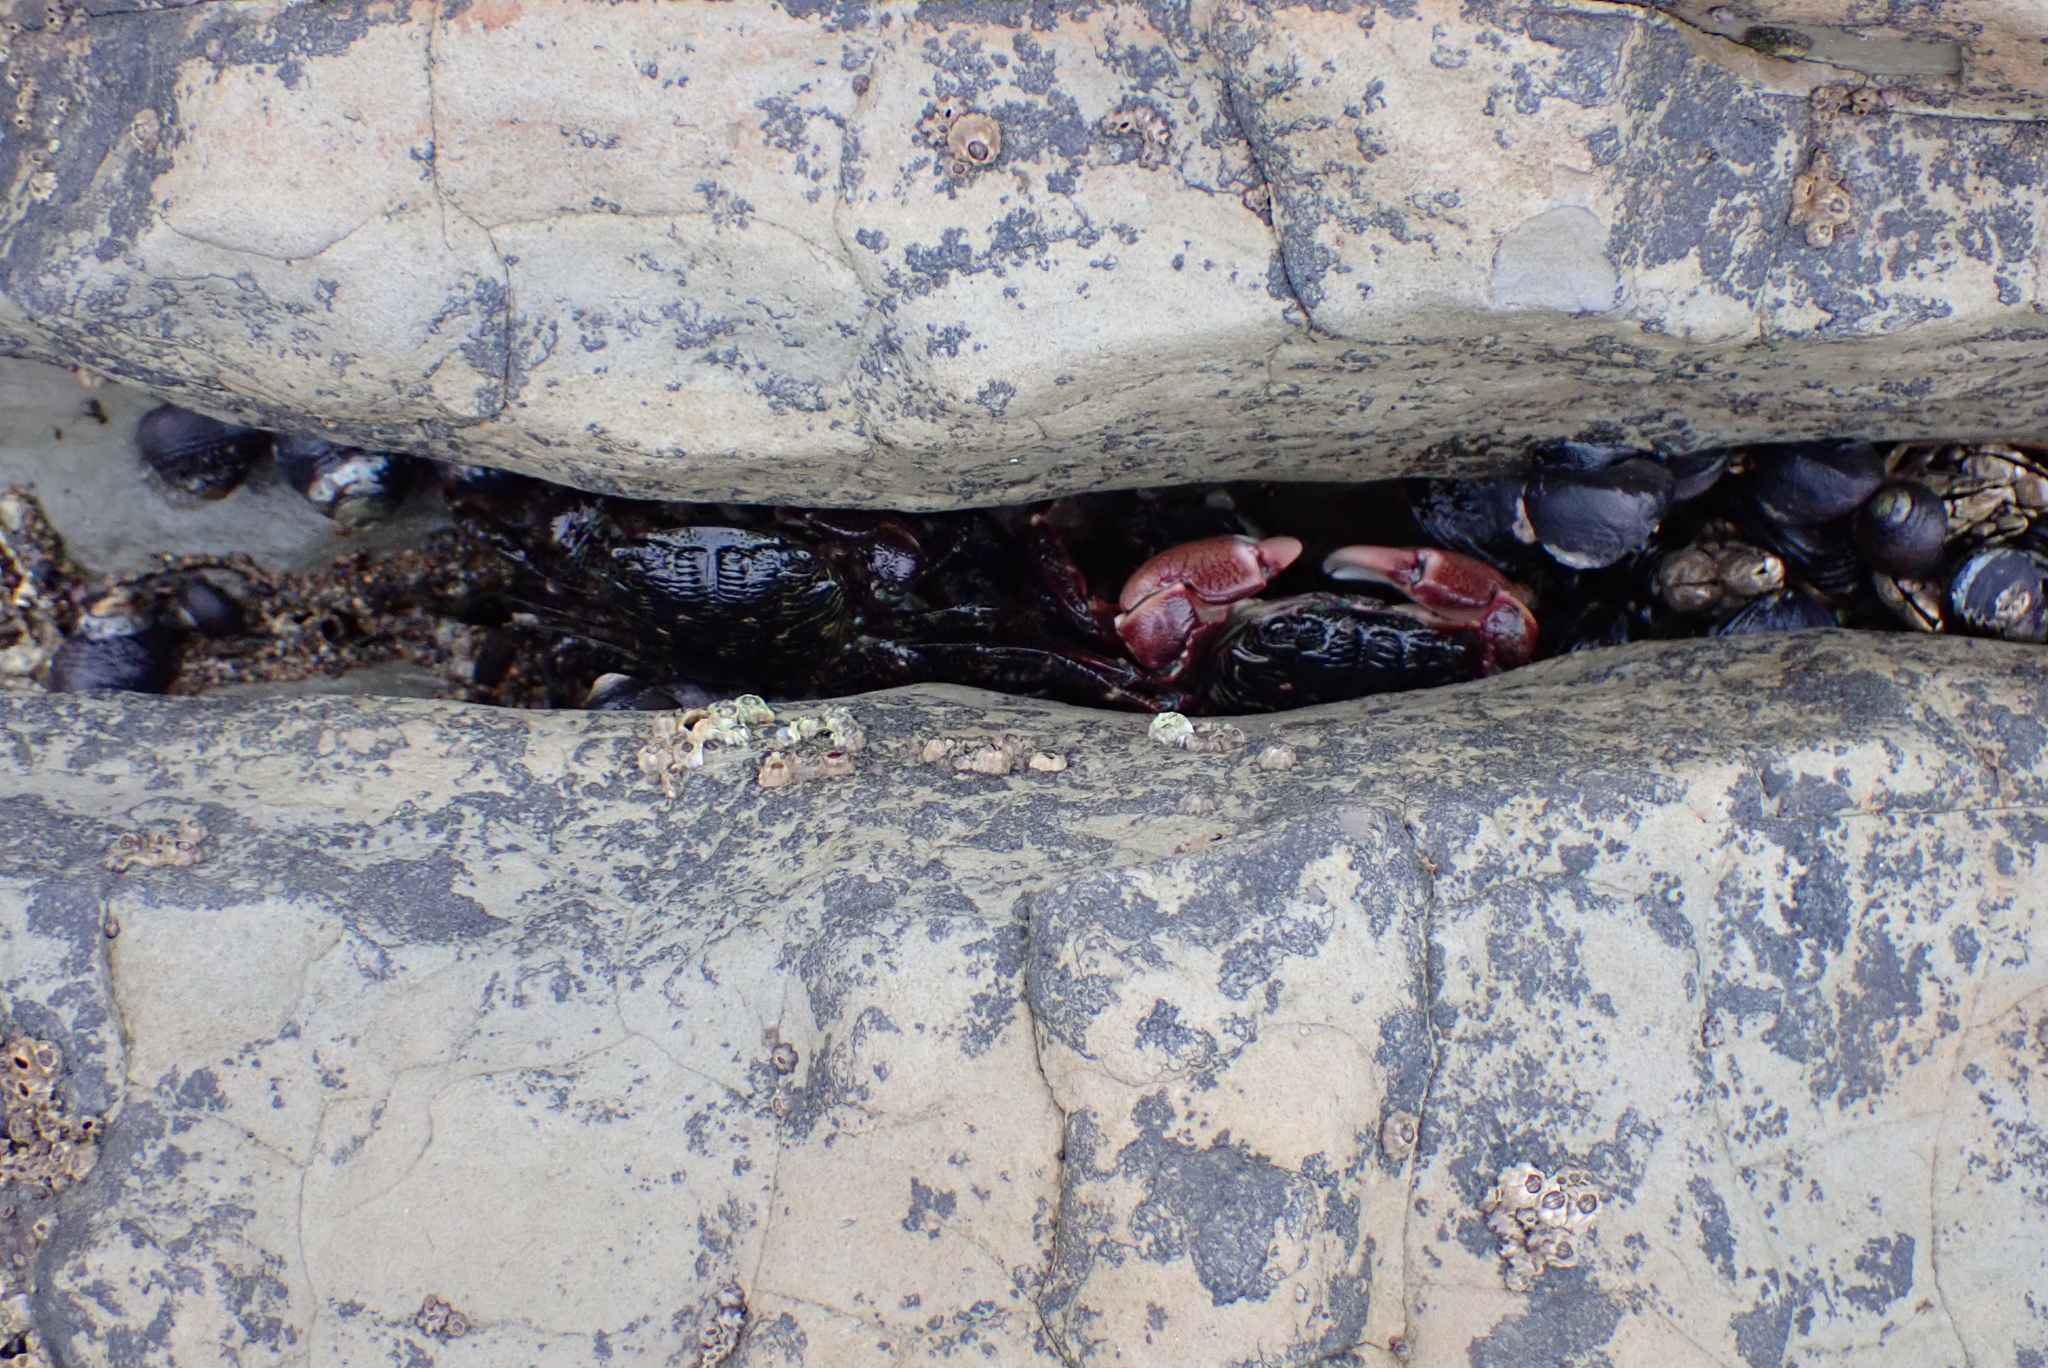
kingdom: Animalia
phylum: Arthropoda
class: Malacostraca
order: Decapoda
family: Grapsidae
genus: Pachygrapsus
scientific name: Pachygrapsus crassipes
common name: Striped shore crab
